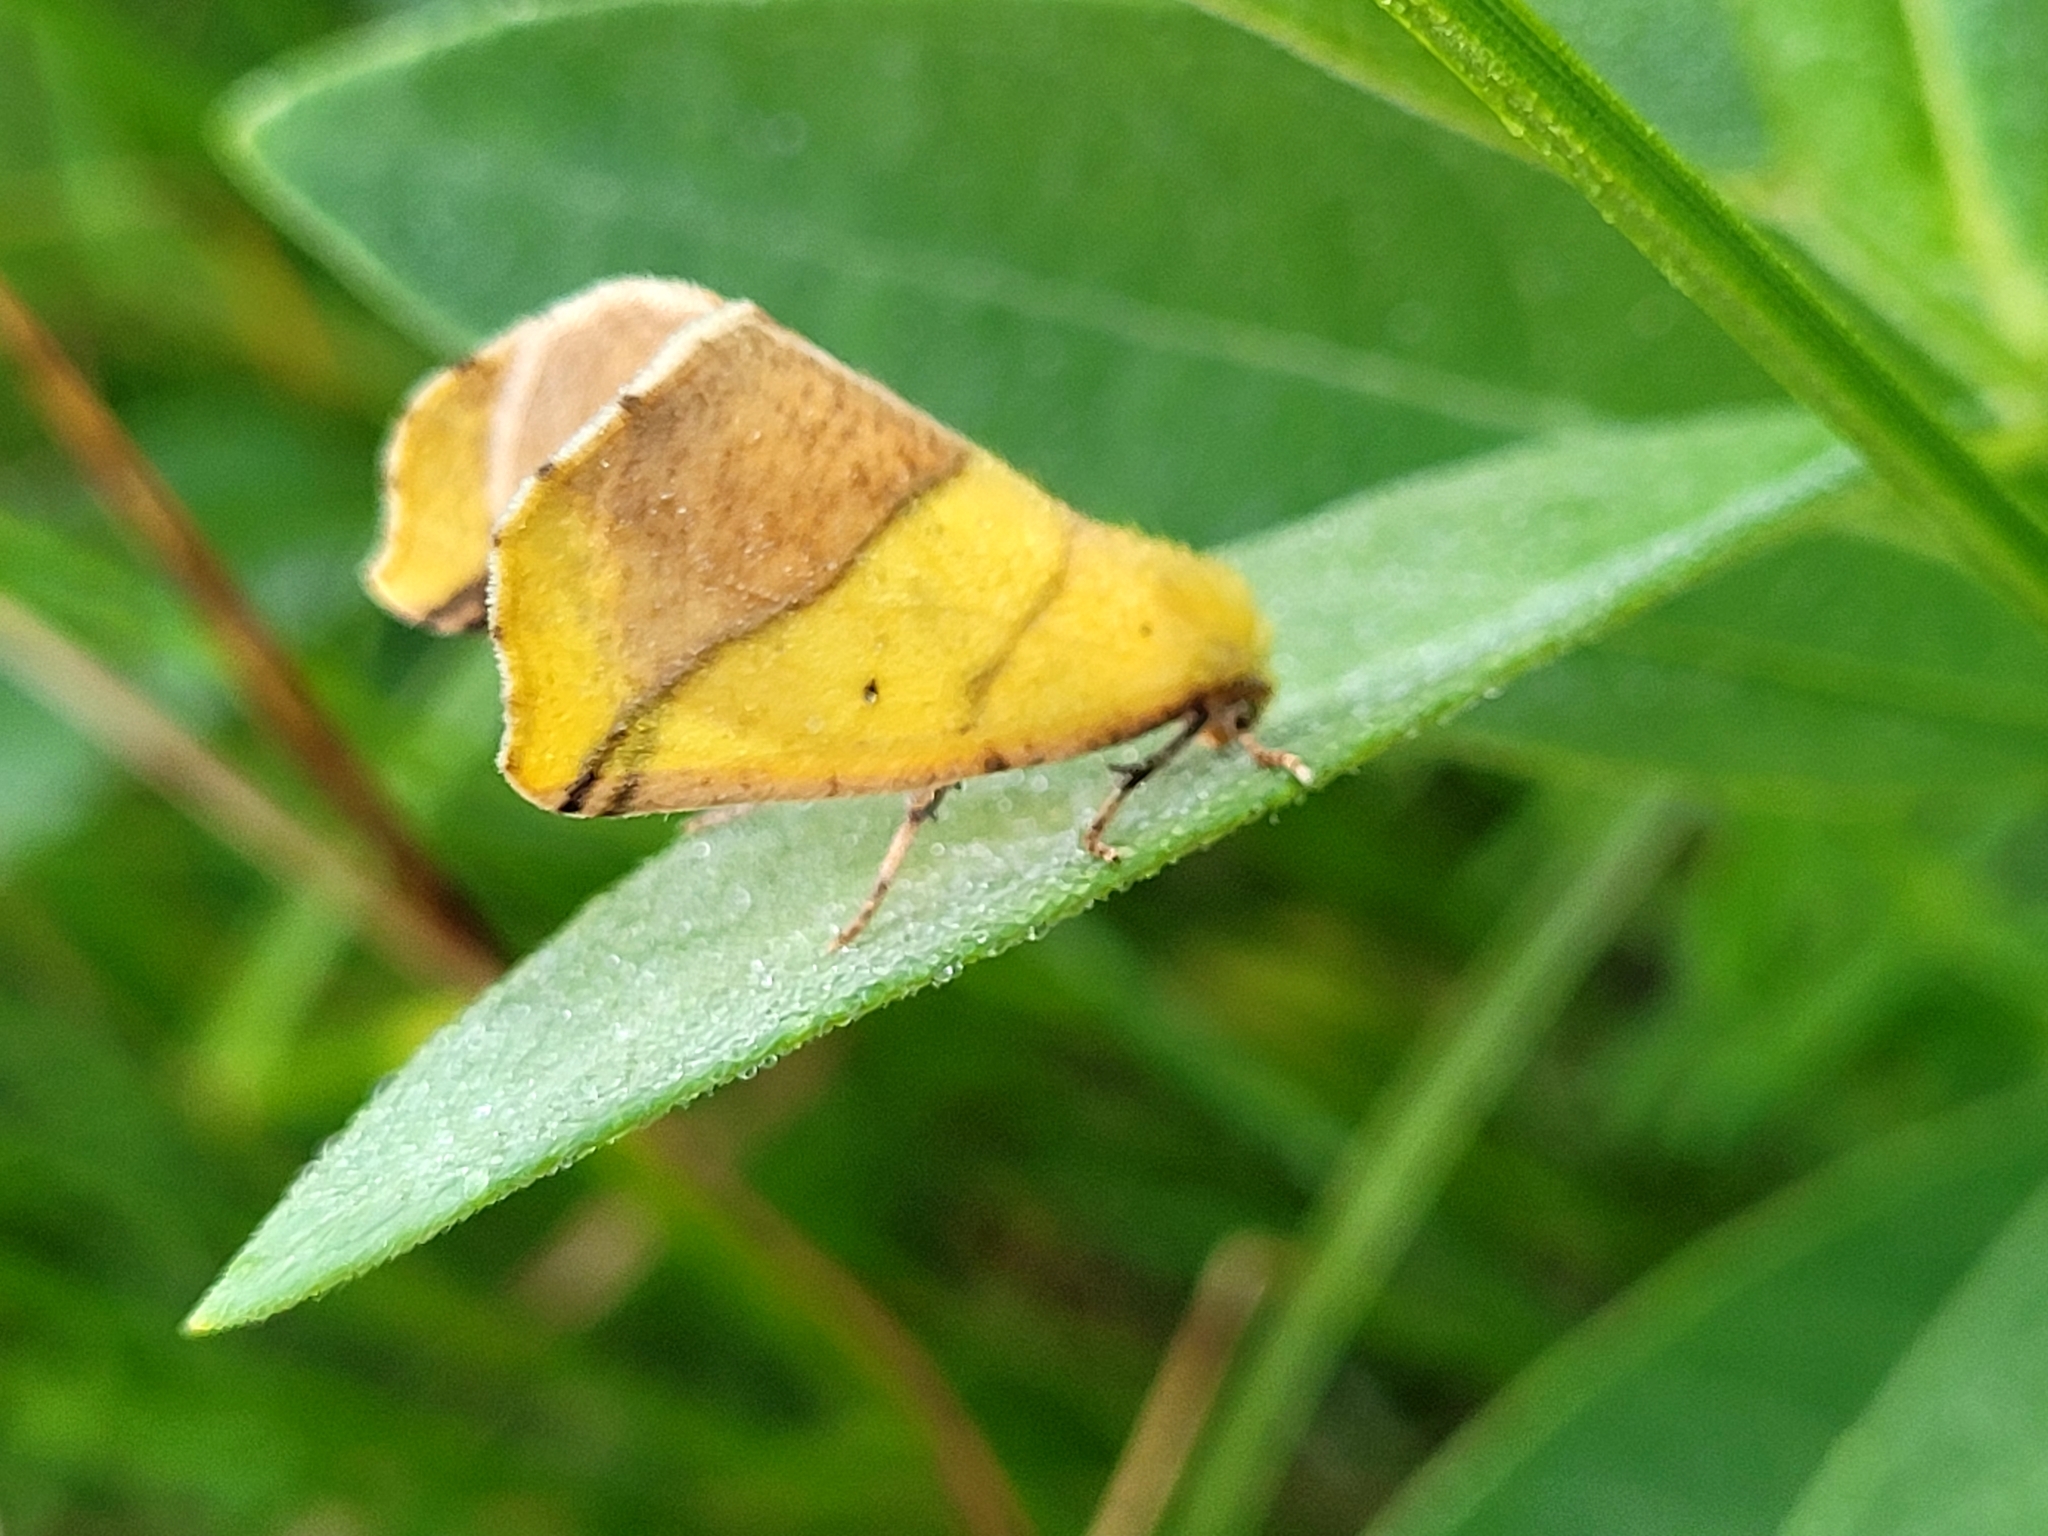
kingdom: Animalia
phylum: Arthropoda
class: Insecta
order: Lepidoptera
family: Geometridae
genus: Sicya
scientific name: Sicya macularia
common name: Sharp-lined yellow
